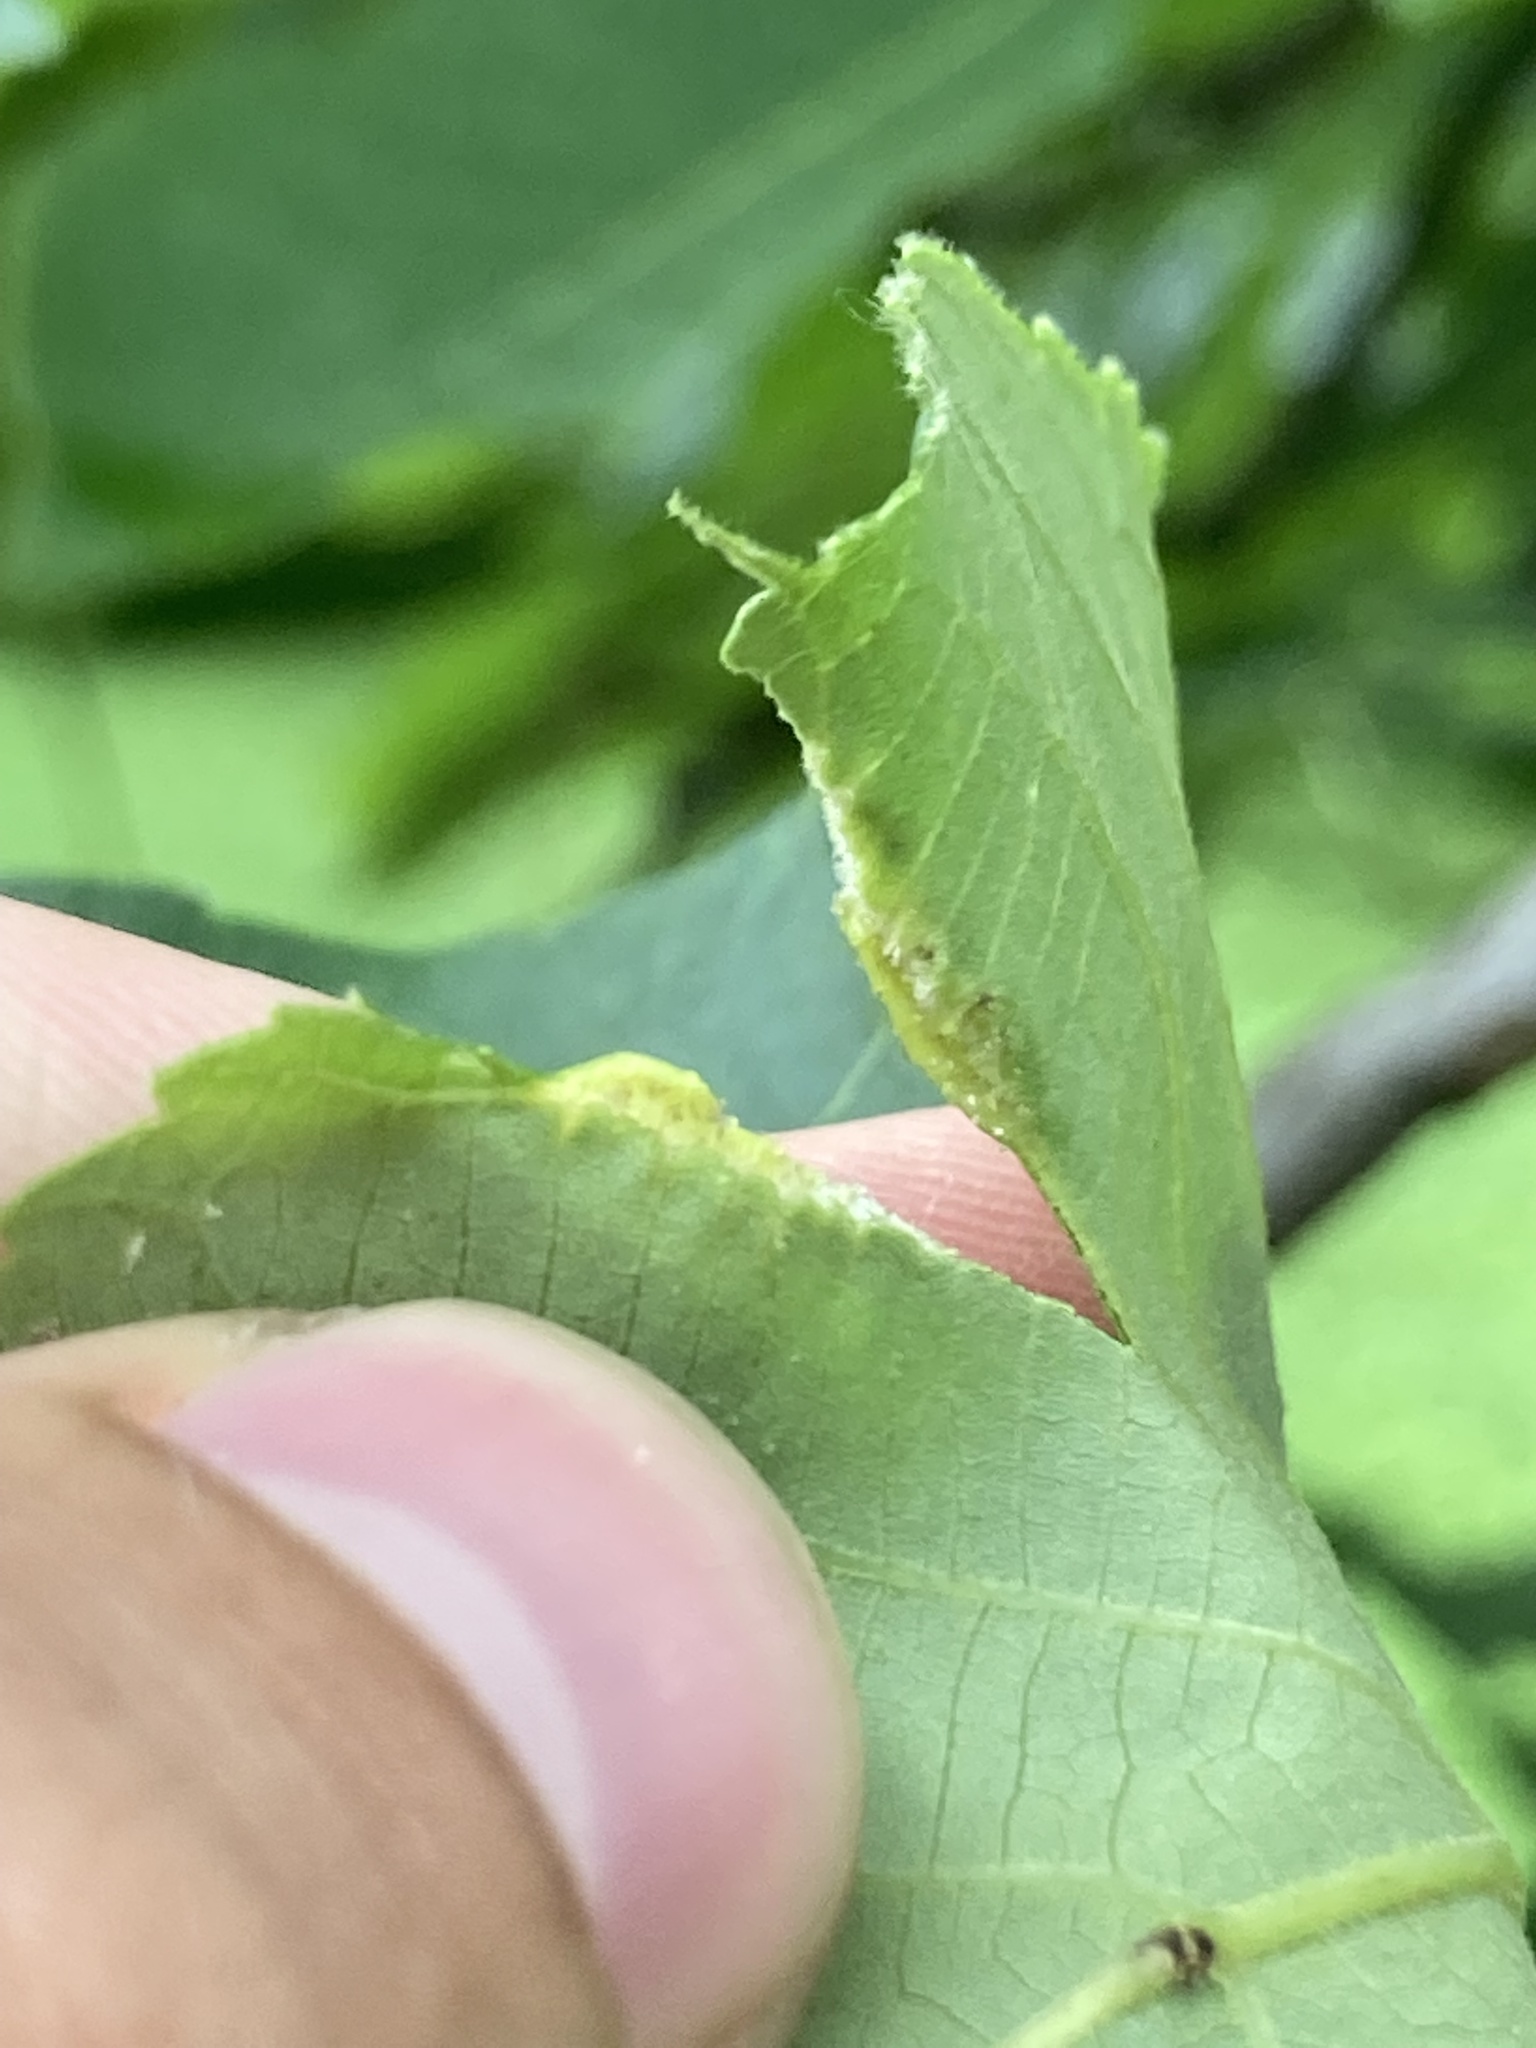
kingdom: Animalia
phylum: Arthropoda
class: Insecta
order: Hemiptera
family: Phylloxeridae
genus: Phylloxera
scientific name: Phylloxera caryaevenae
